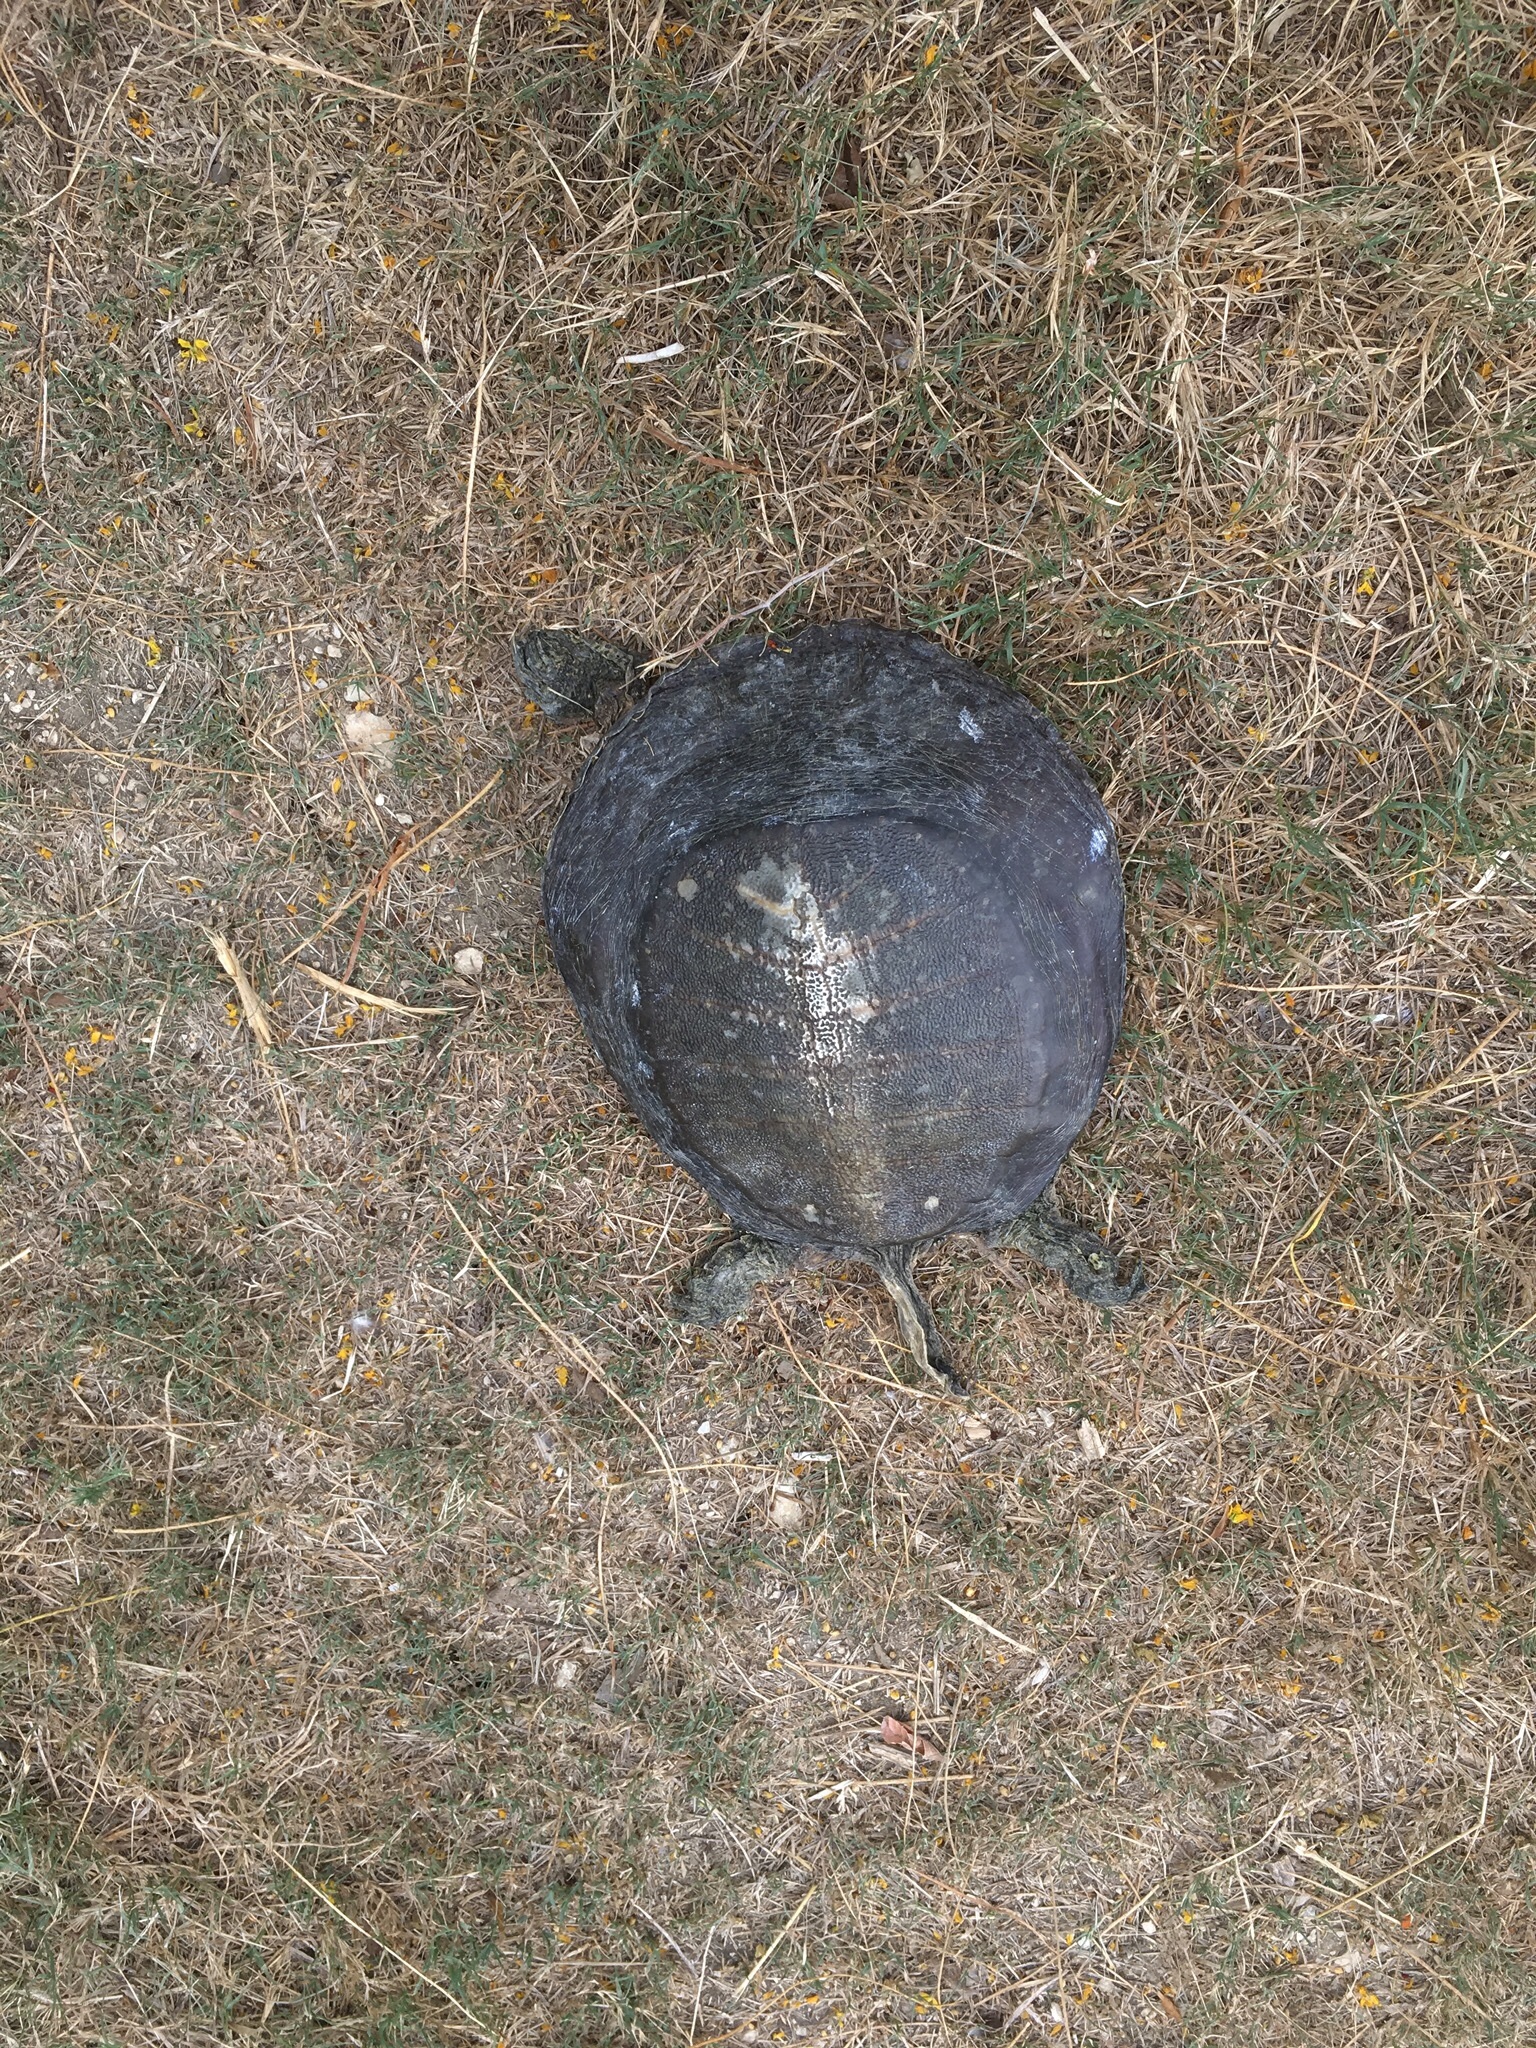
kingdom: Animalia
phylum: Chordata
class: Testudines
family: Trionychidae
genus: Apalone
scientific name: Apalone spinifera
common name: Spiny softshell turtle
